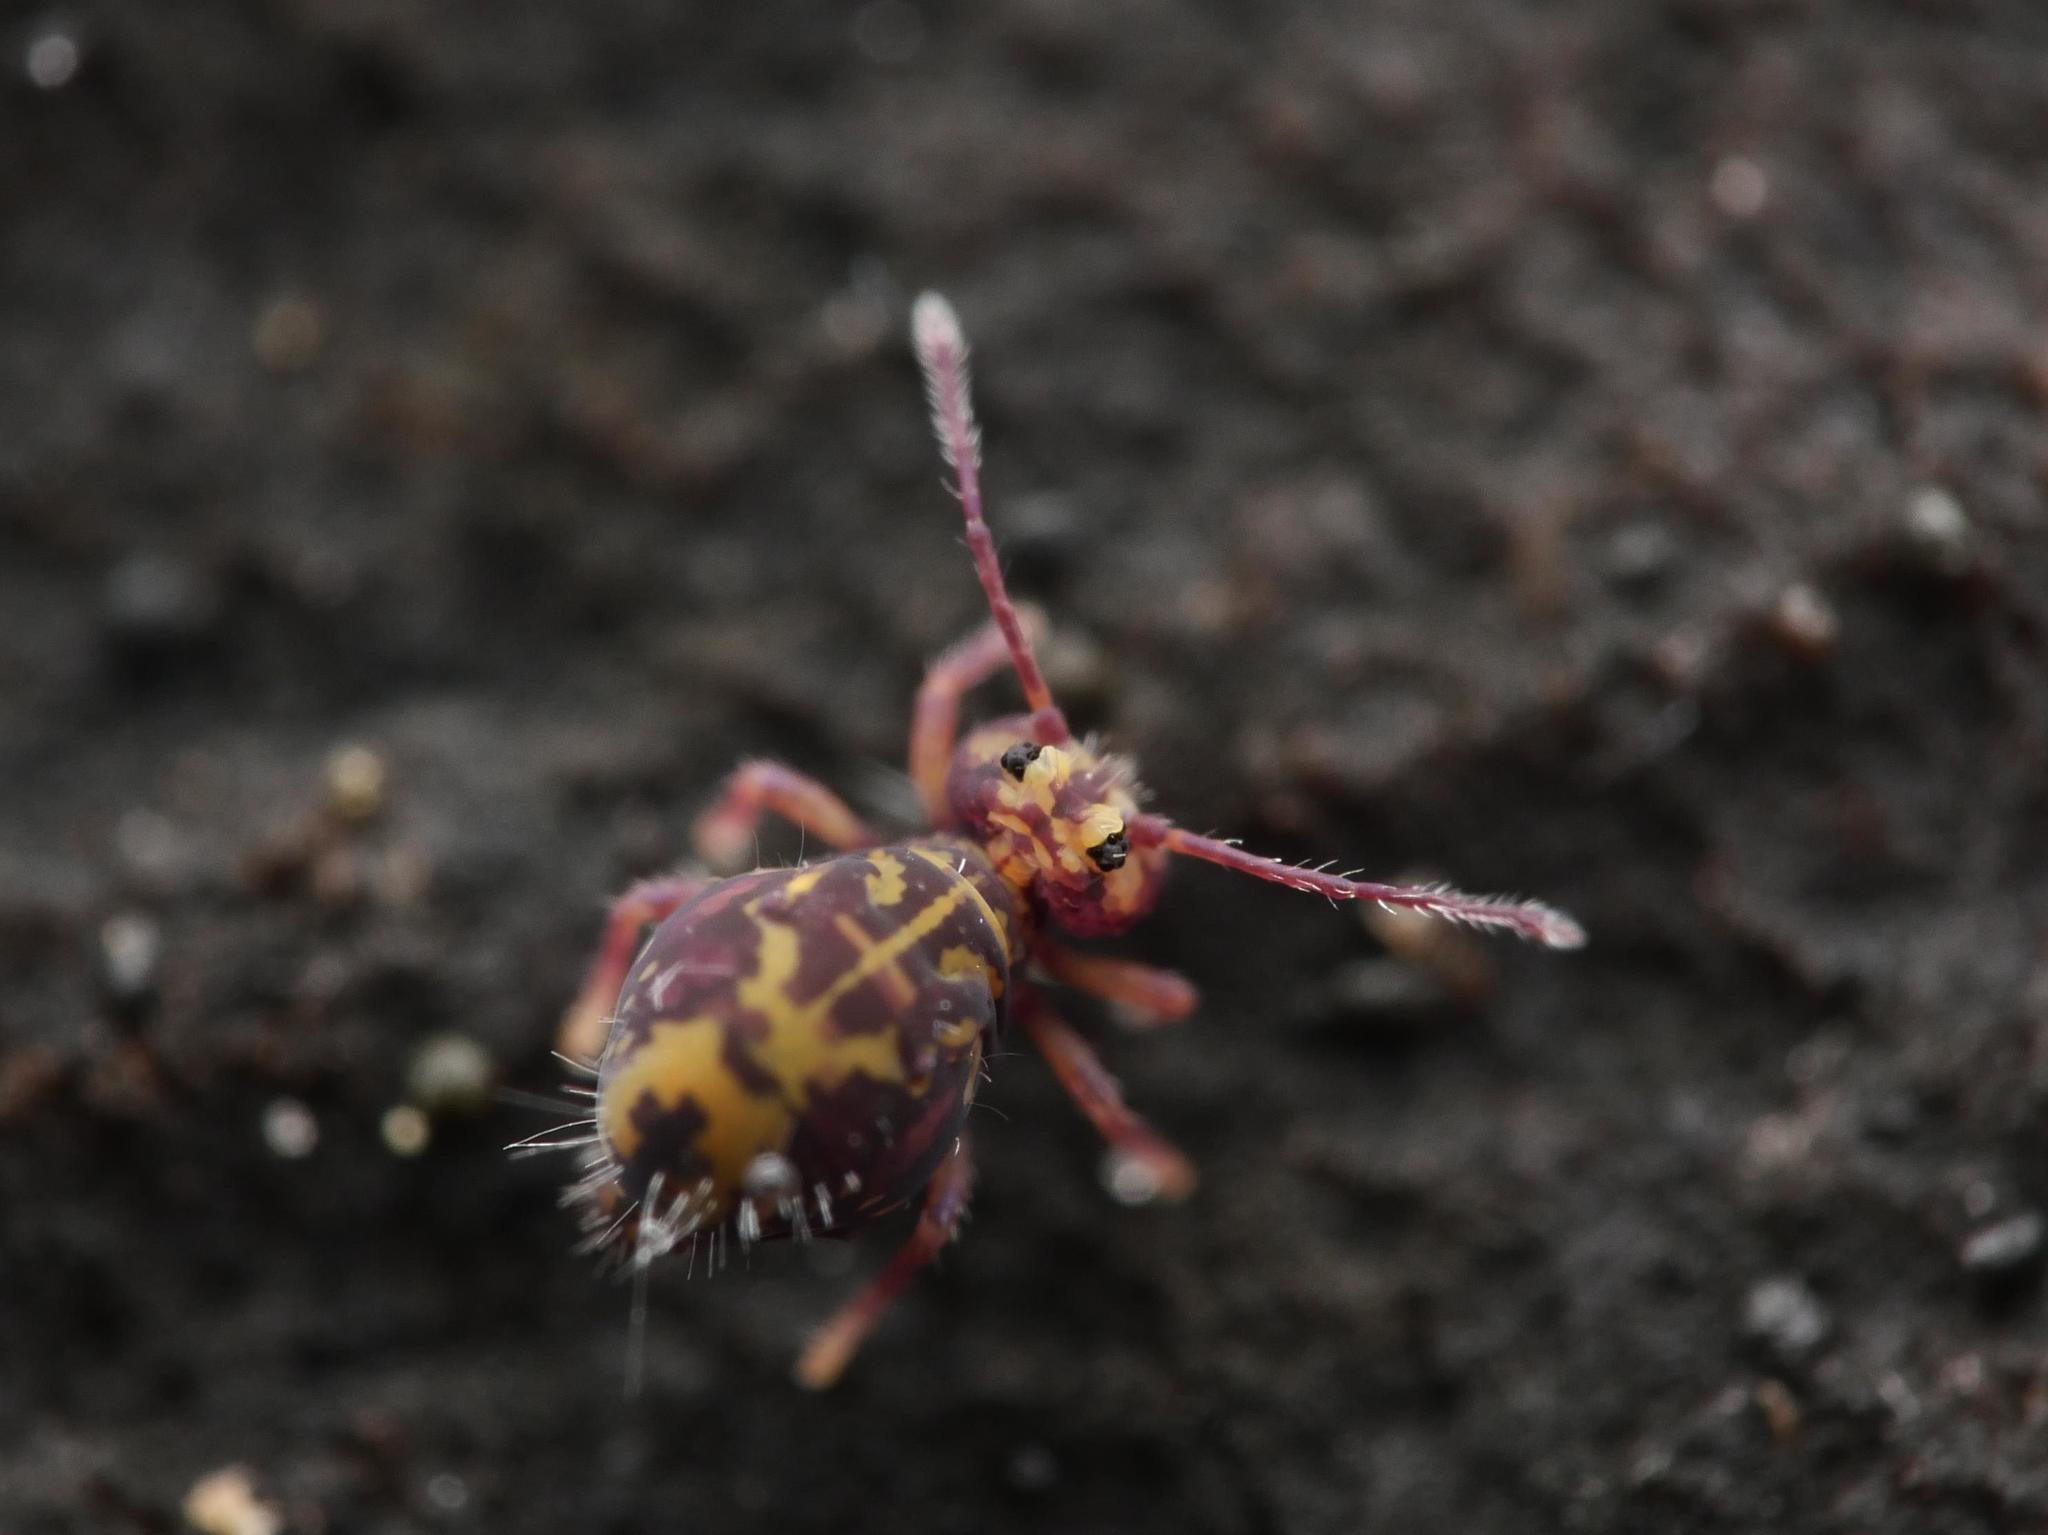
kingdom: Animalia
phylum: Arthropoda
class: Collembola
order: Symphypleona
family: Dicyrtomidae
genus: Dicyrtomina
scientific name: Dicyrtomina ornata
